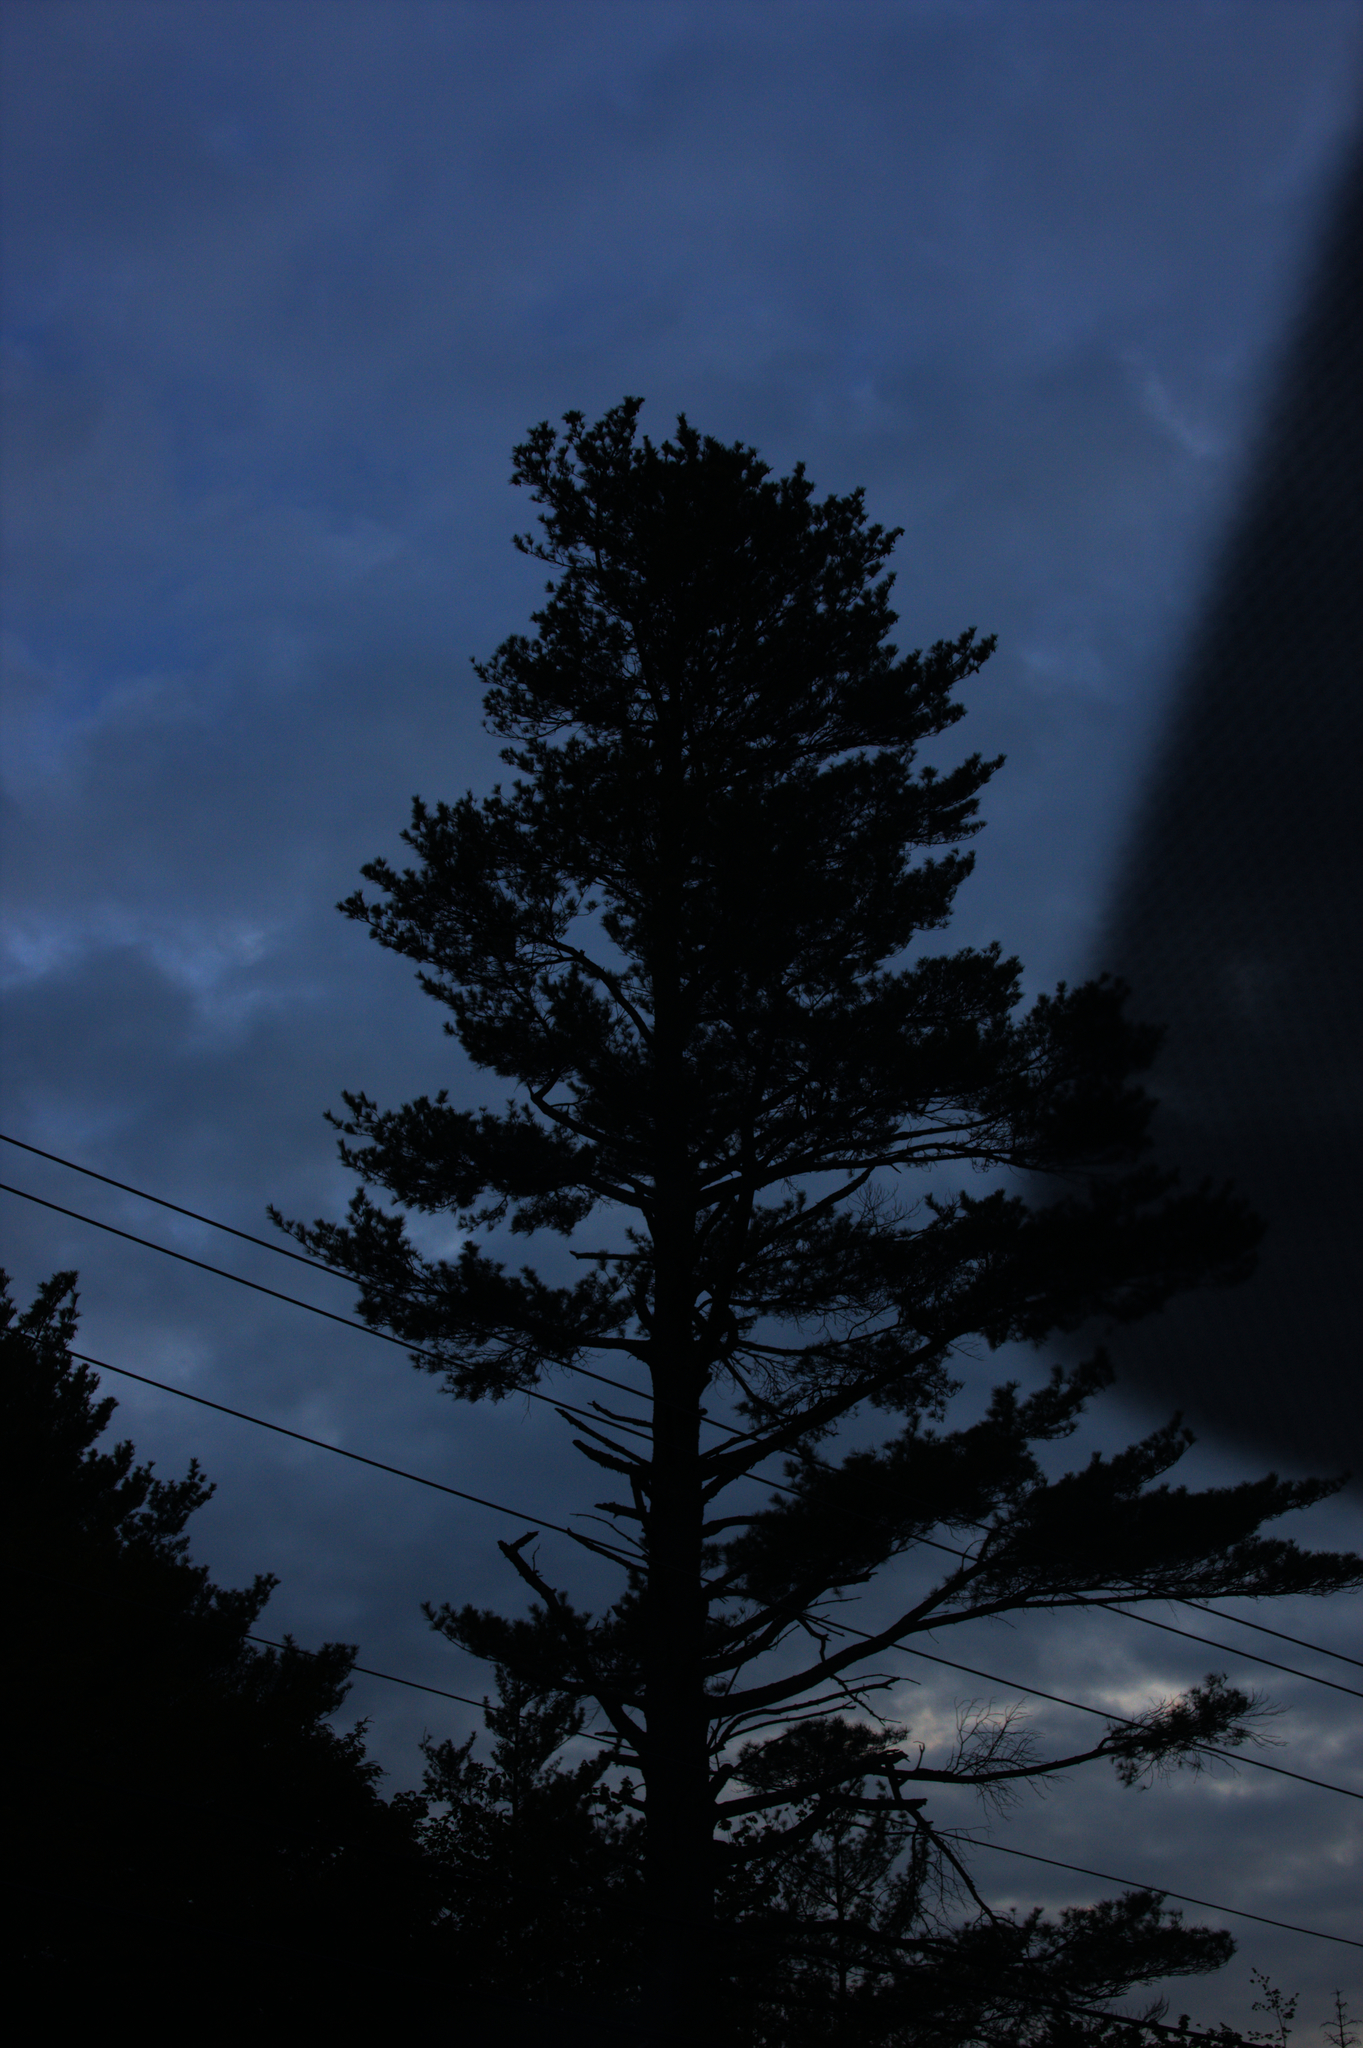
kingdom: Plantae
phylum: Tracheophyta
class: Pinopsida
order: Pinales
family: Pinaceae
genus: Pinus
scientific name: Pinus strobus
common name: Weymouth pine
